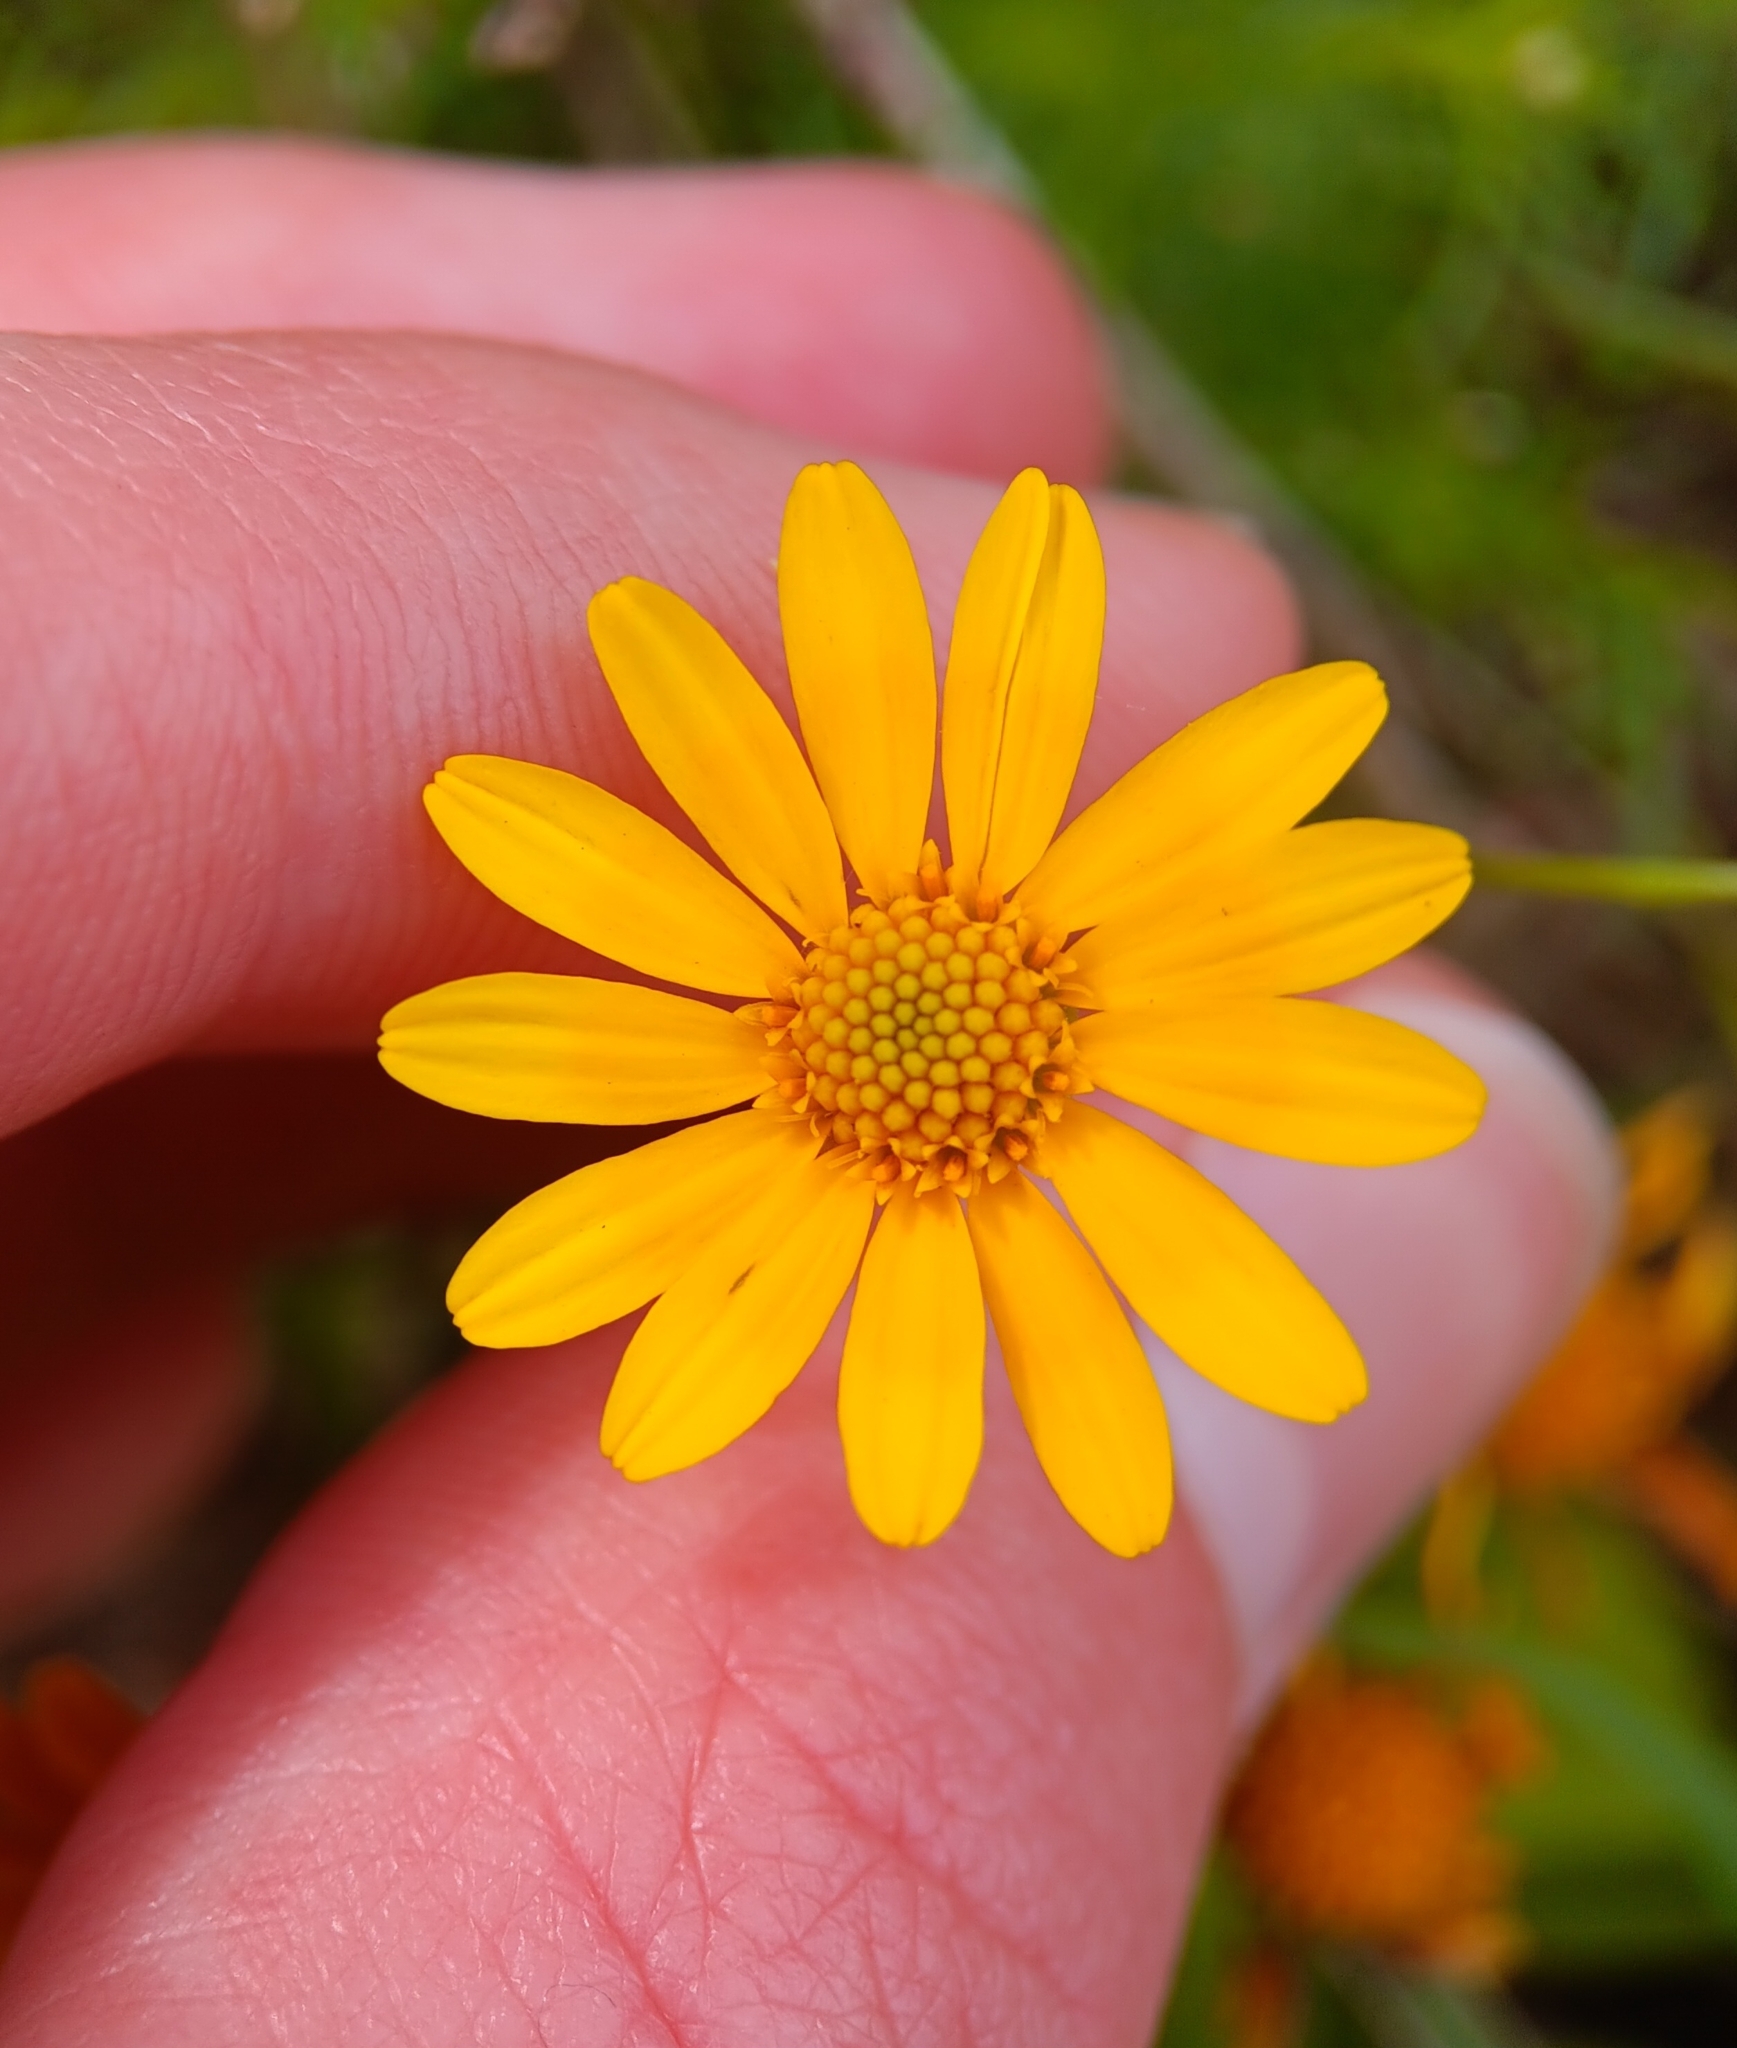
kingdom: Plantae
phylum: Tracheophyta
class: Magnoliopsida
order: Asterales
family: Asteraceae
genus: Thymophylla
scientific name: Thymophylla tenuiloba
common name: Dahlberg's daisy
